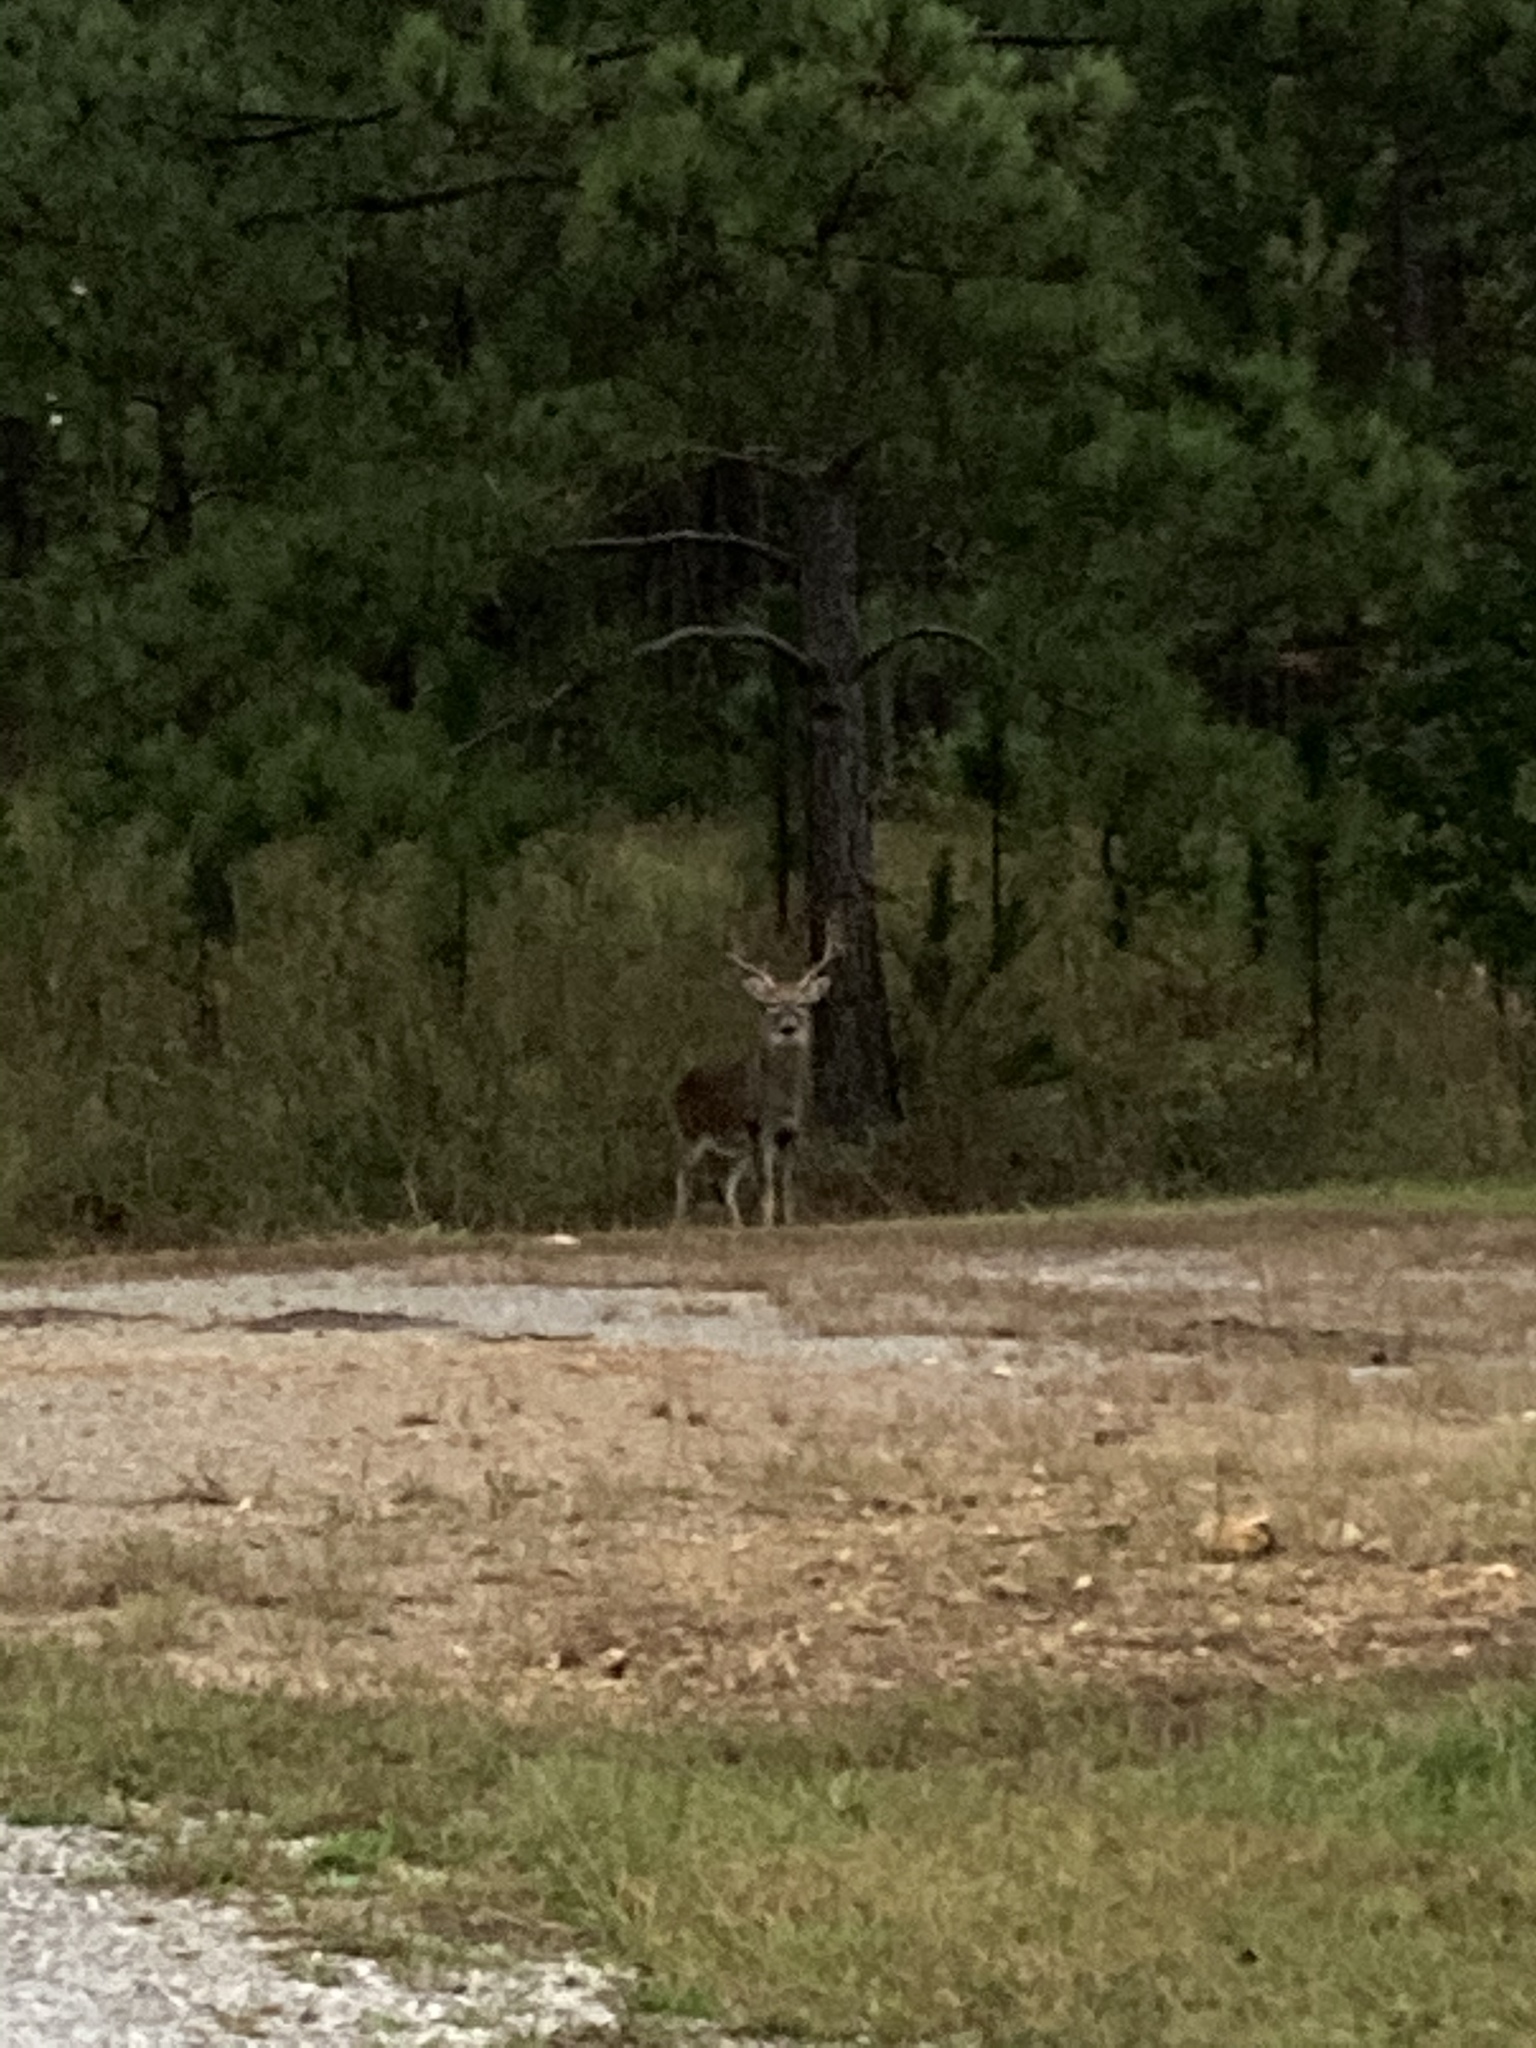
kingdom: Animalia
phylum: Chordata
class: Mammalia
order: Artiodactyla
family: Cervidae
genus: Odocoileus
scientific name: Odocoileus virginianus
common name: White-tailed deer
